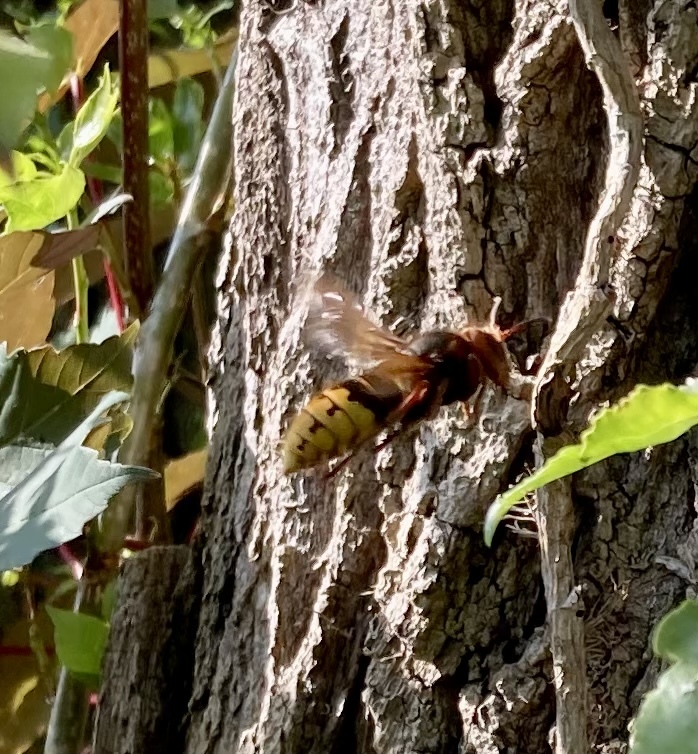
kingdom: Animalia
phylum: Arthropoda
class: Insecta
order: Hymenoptera
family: Vespidae
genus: Vespa
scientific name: Vespa crabro
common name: Hornet
